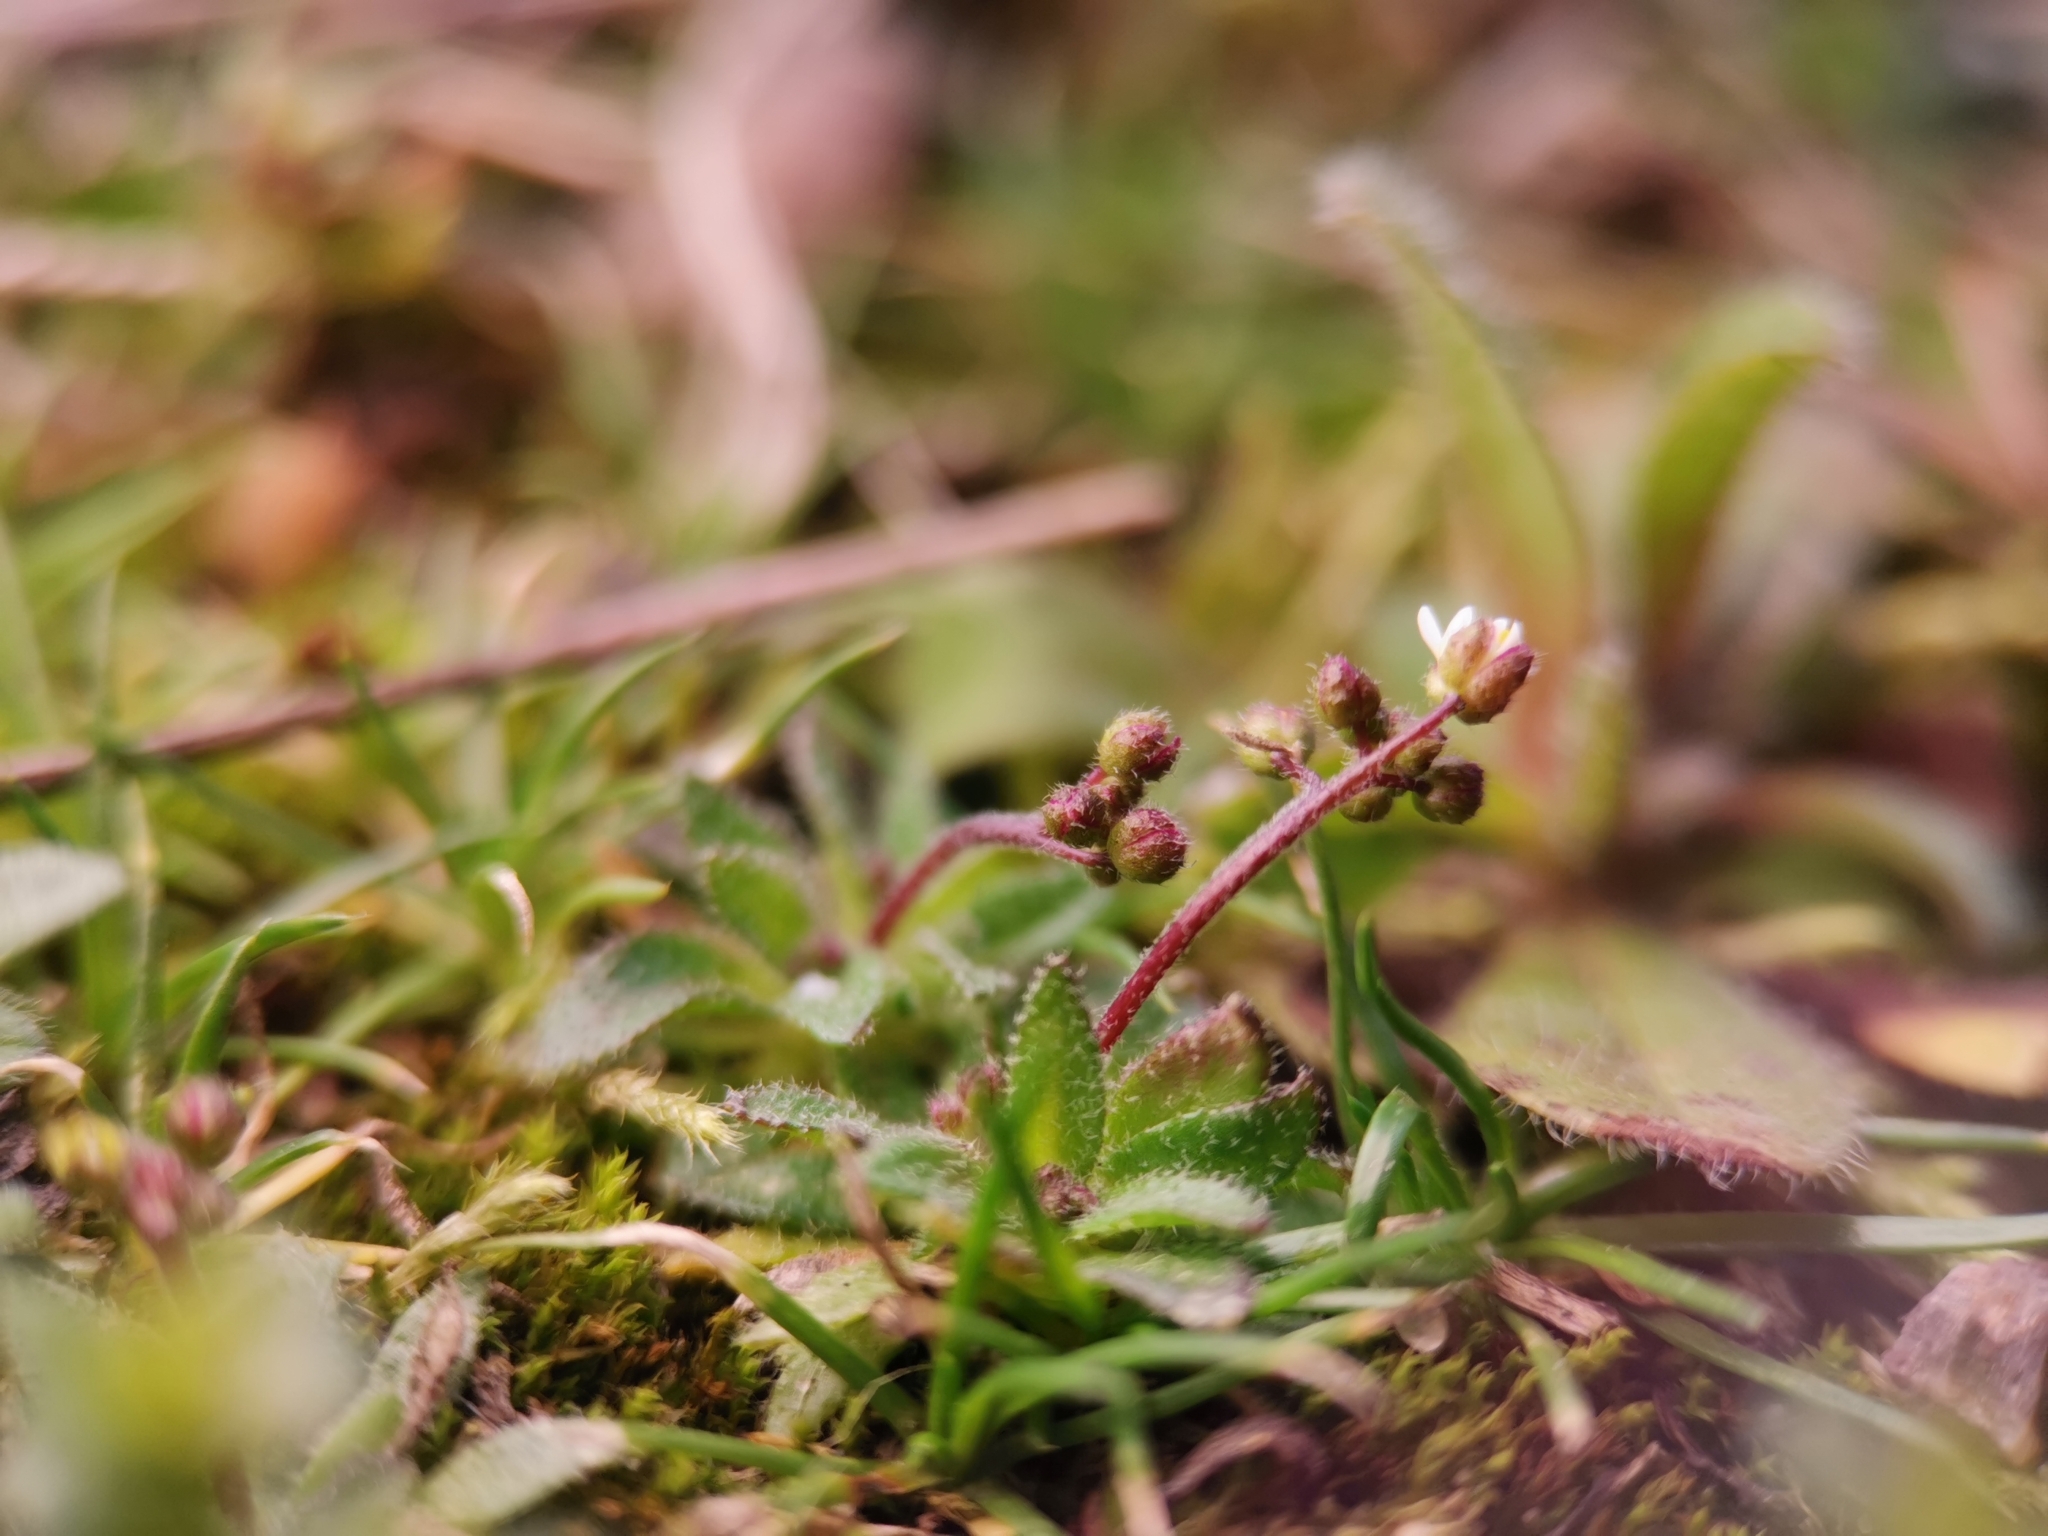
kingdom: Plantae
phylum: Tracheophyta
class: Magnoliopsida
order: Brassicales
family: Brassicaceae
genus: Draba
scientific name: Draba verna
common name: Spring draba
